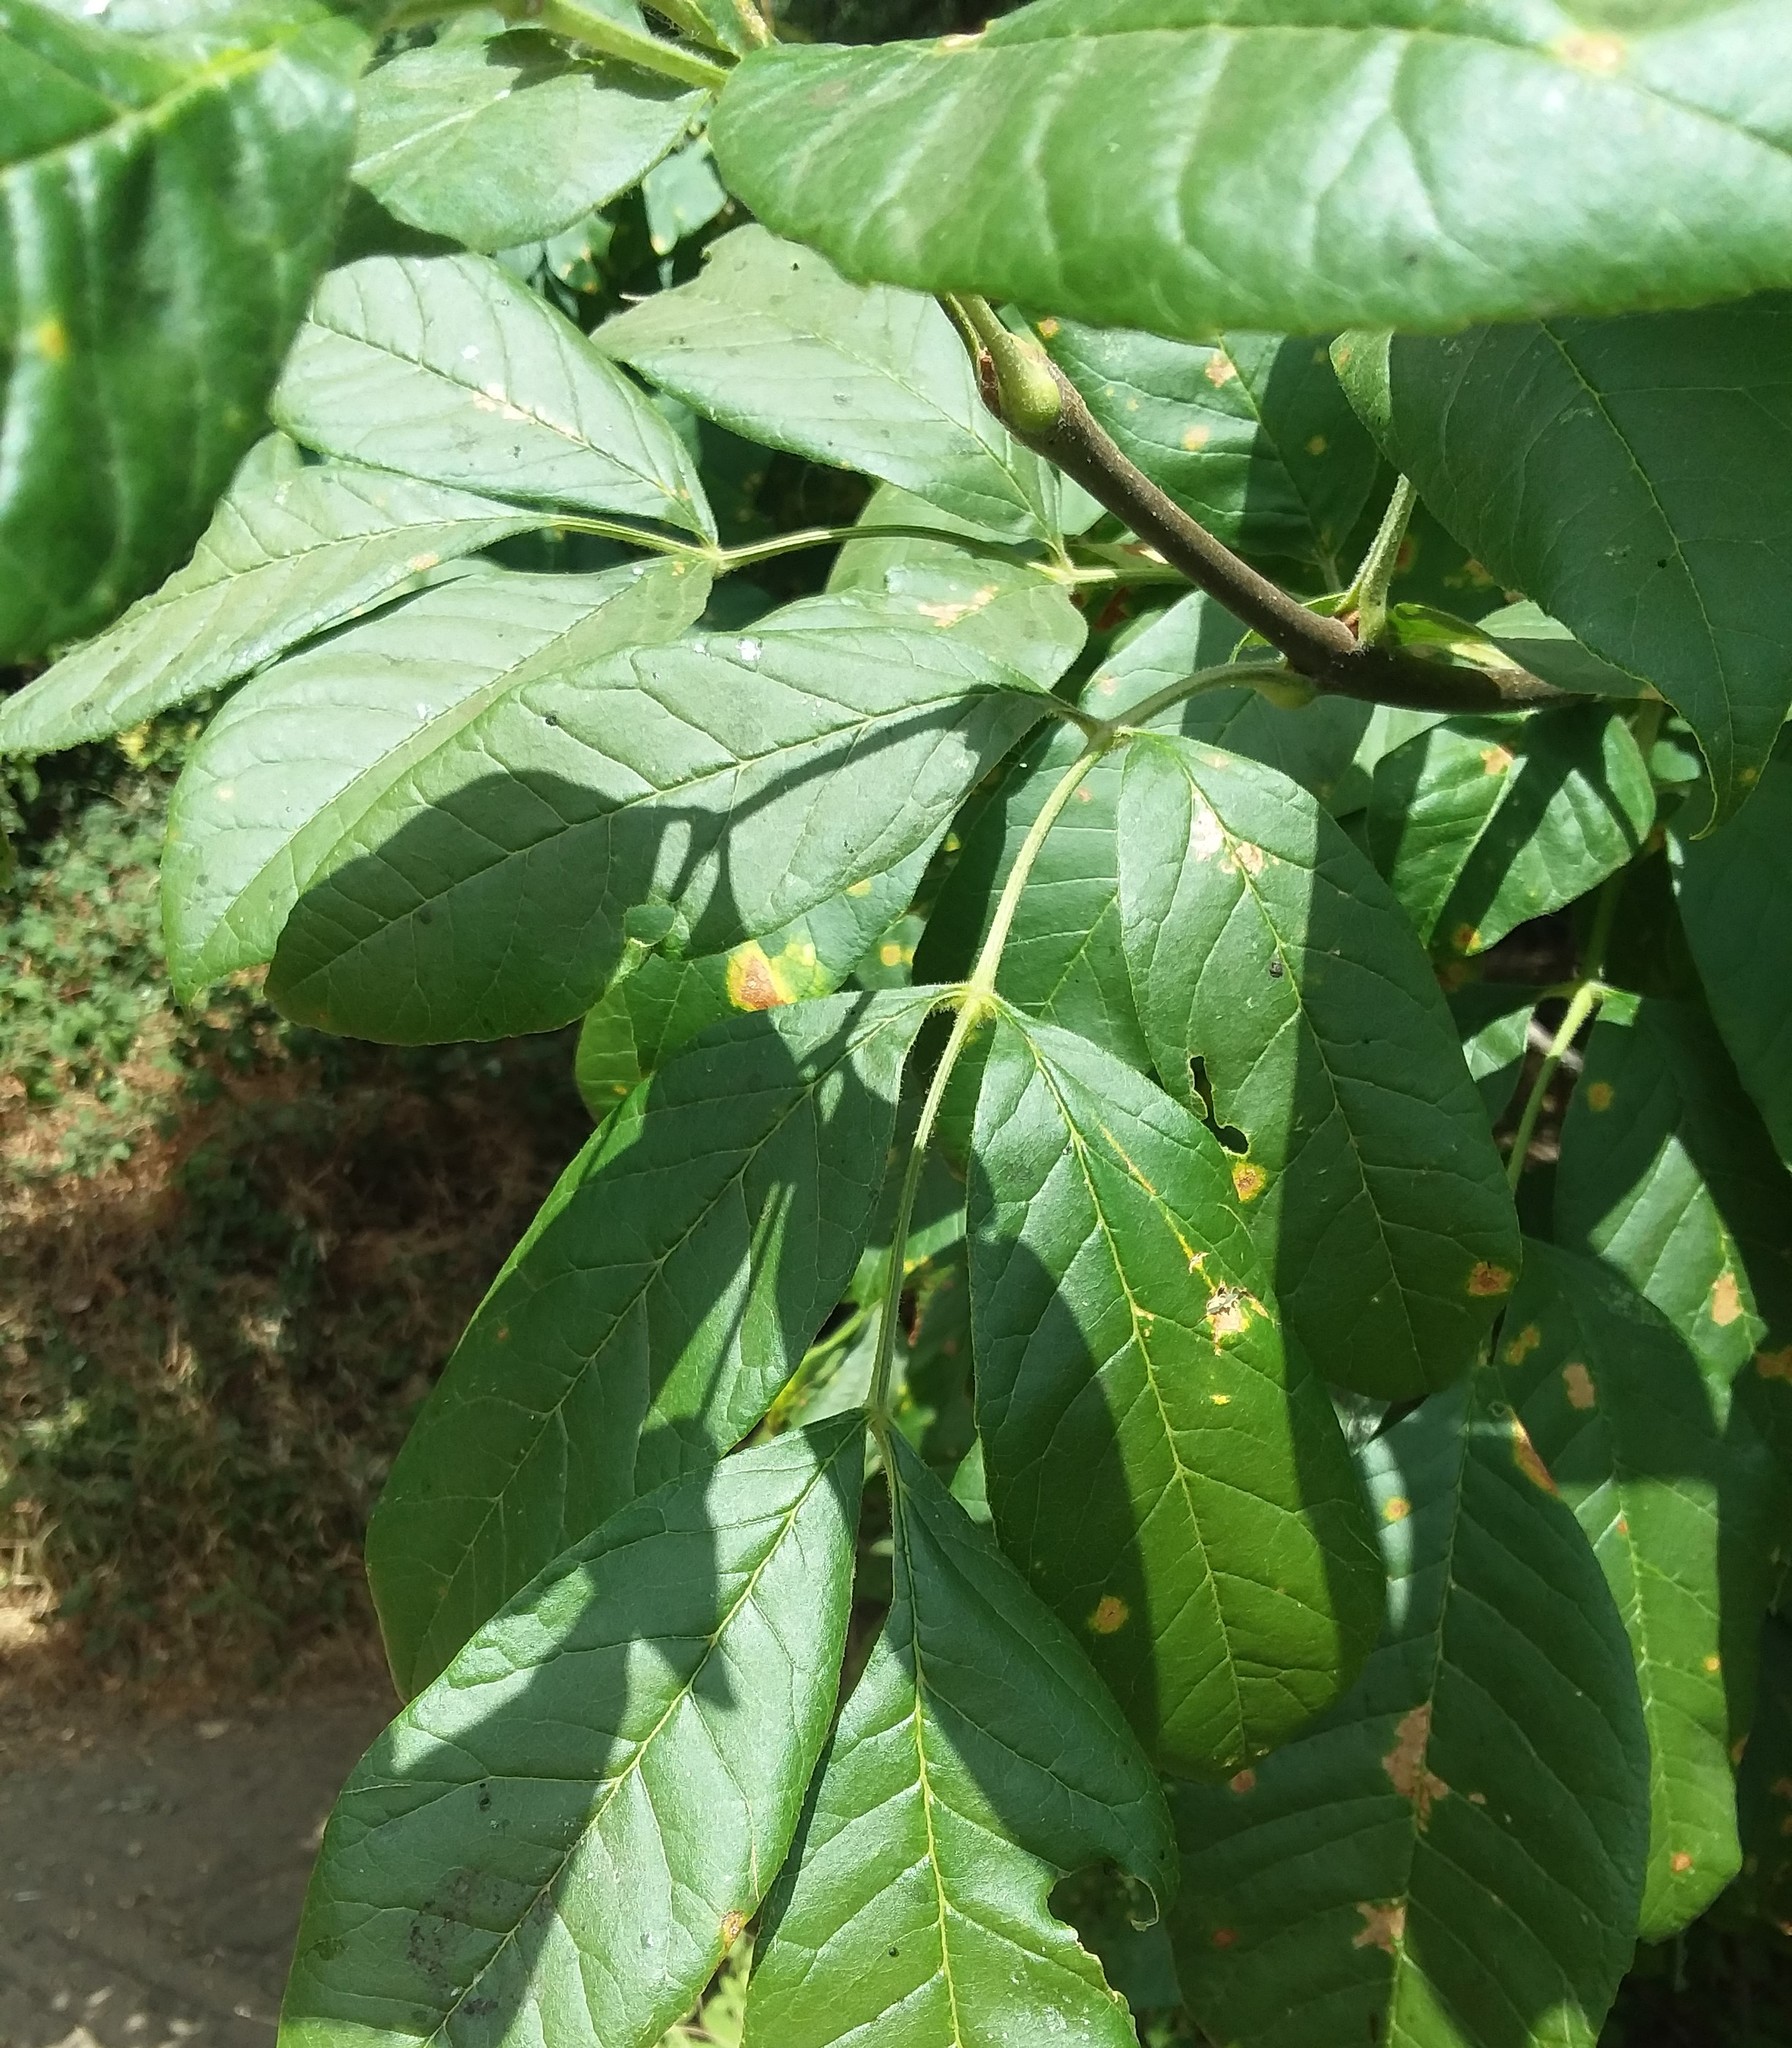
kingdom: Plantae
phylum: Tracheophyta
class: Magnoliopsida
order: Lamiales
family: Oleaceae
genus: Fraxinus
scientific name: Fraxinus latifolia
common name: Oregon ash
